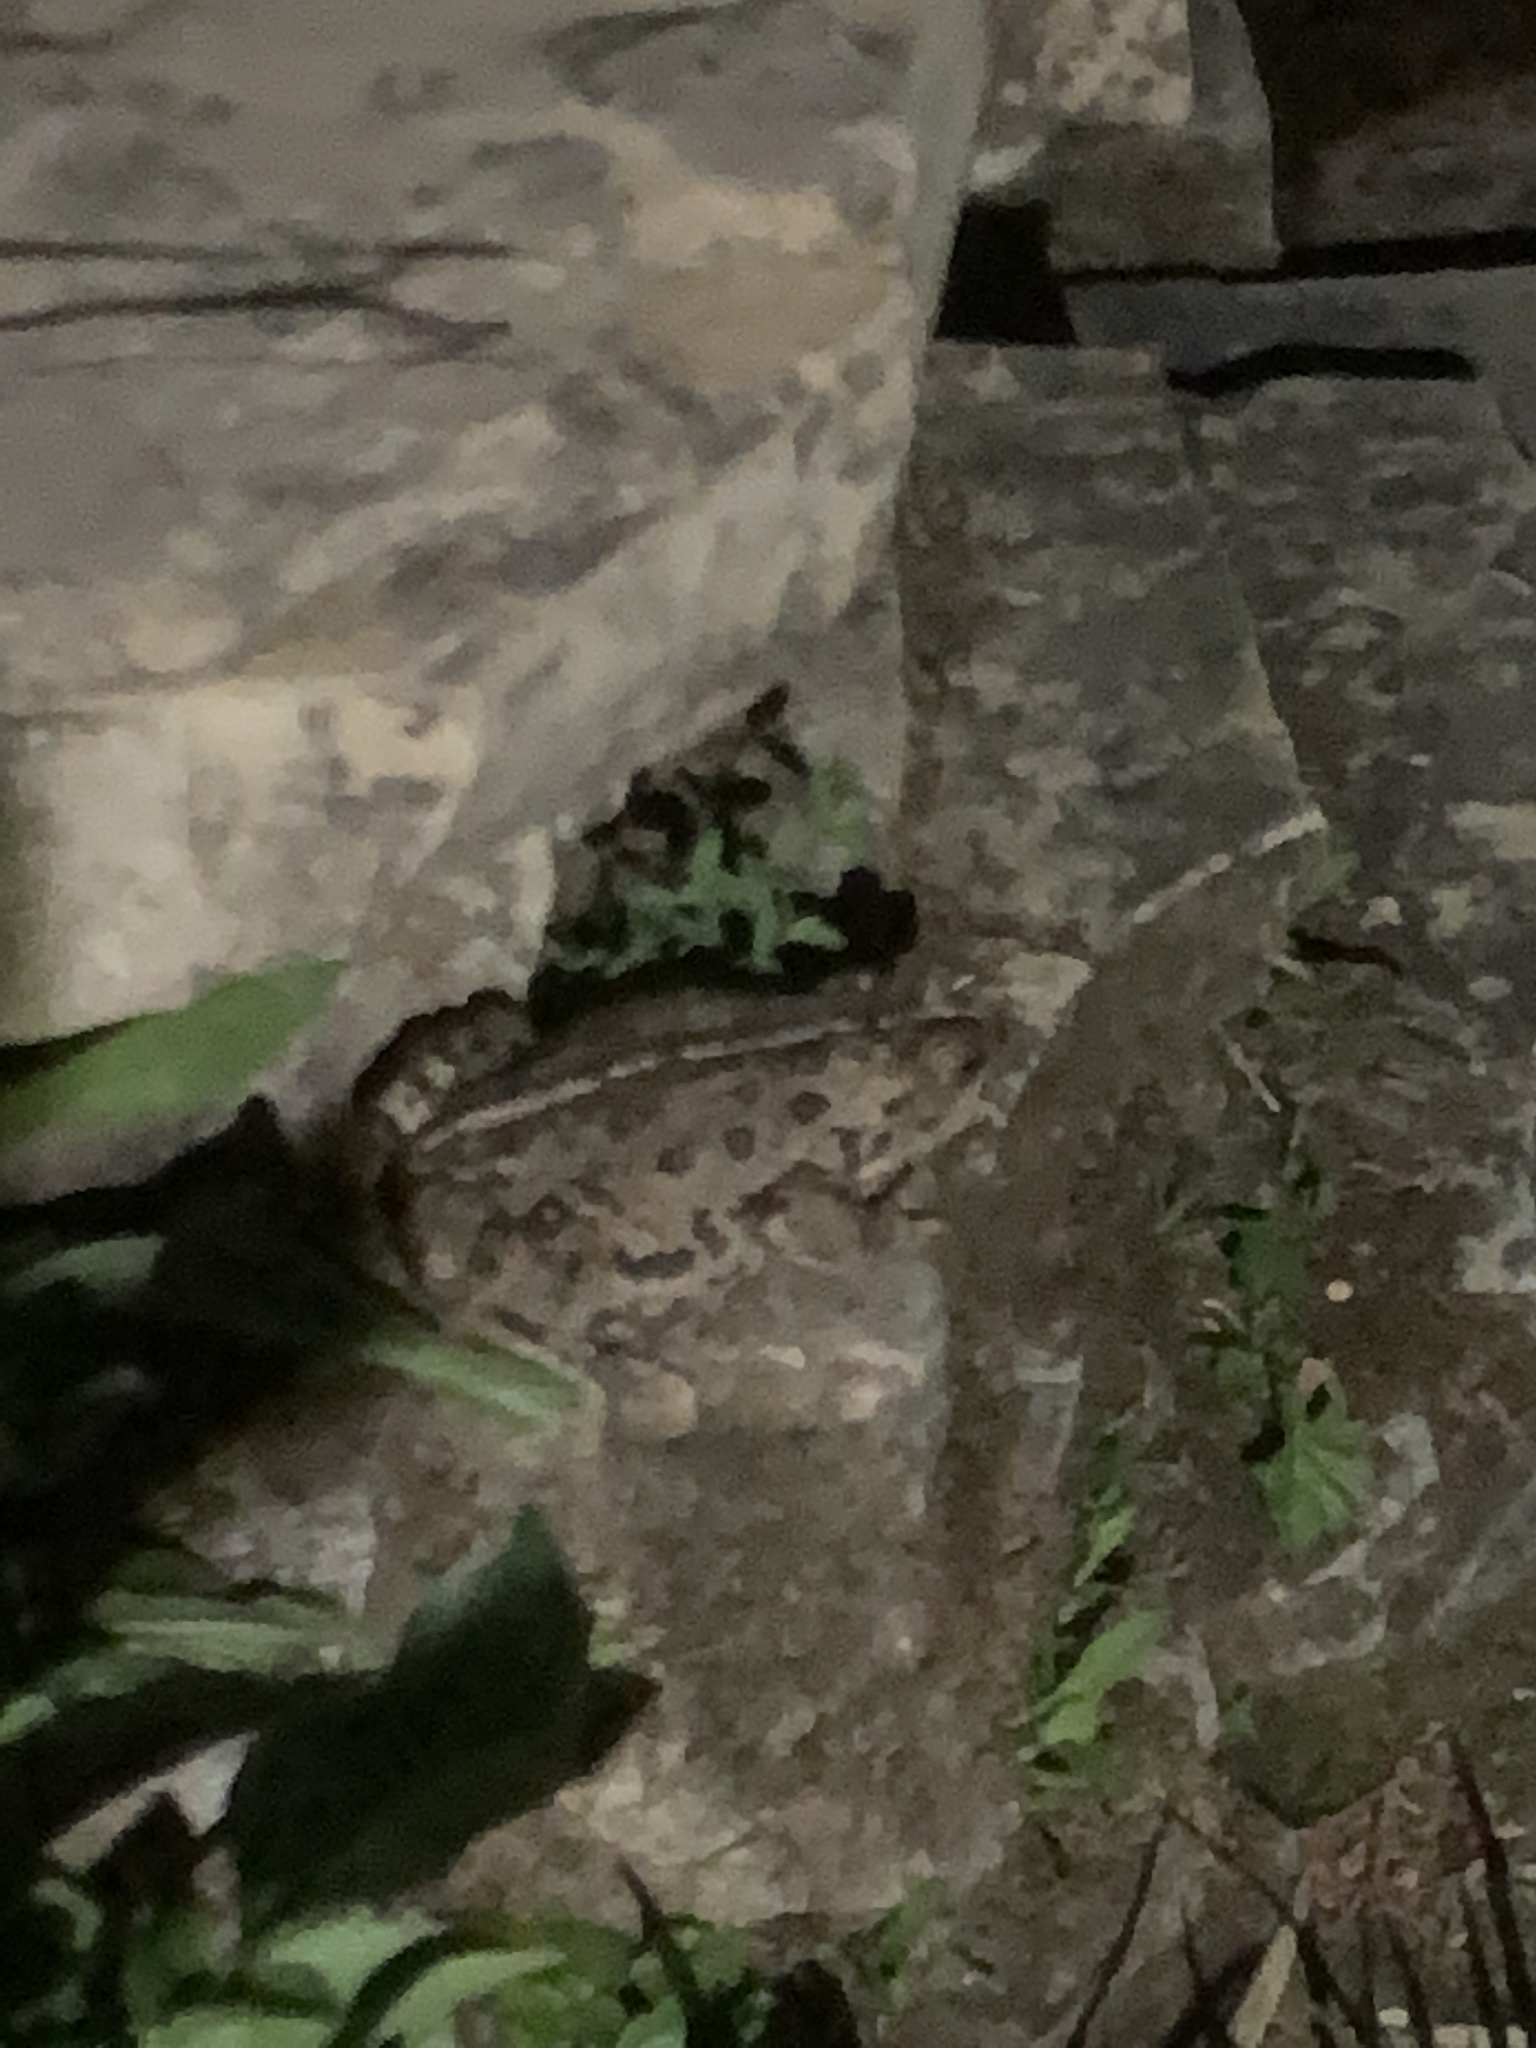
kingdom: Animalia
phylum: Chordata
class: Amphibia
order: Anura
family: Bufonidae
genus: Anaxyrus
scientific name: Anaxyrus boreas
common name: Western toad
